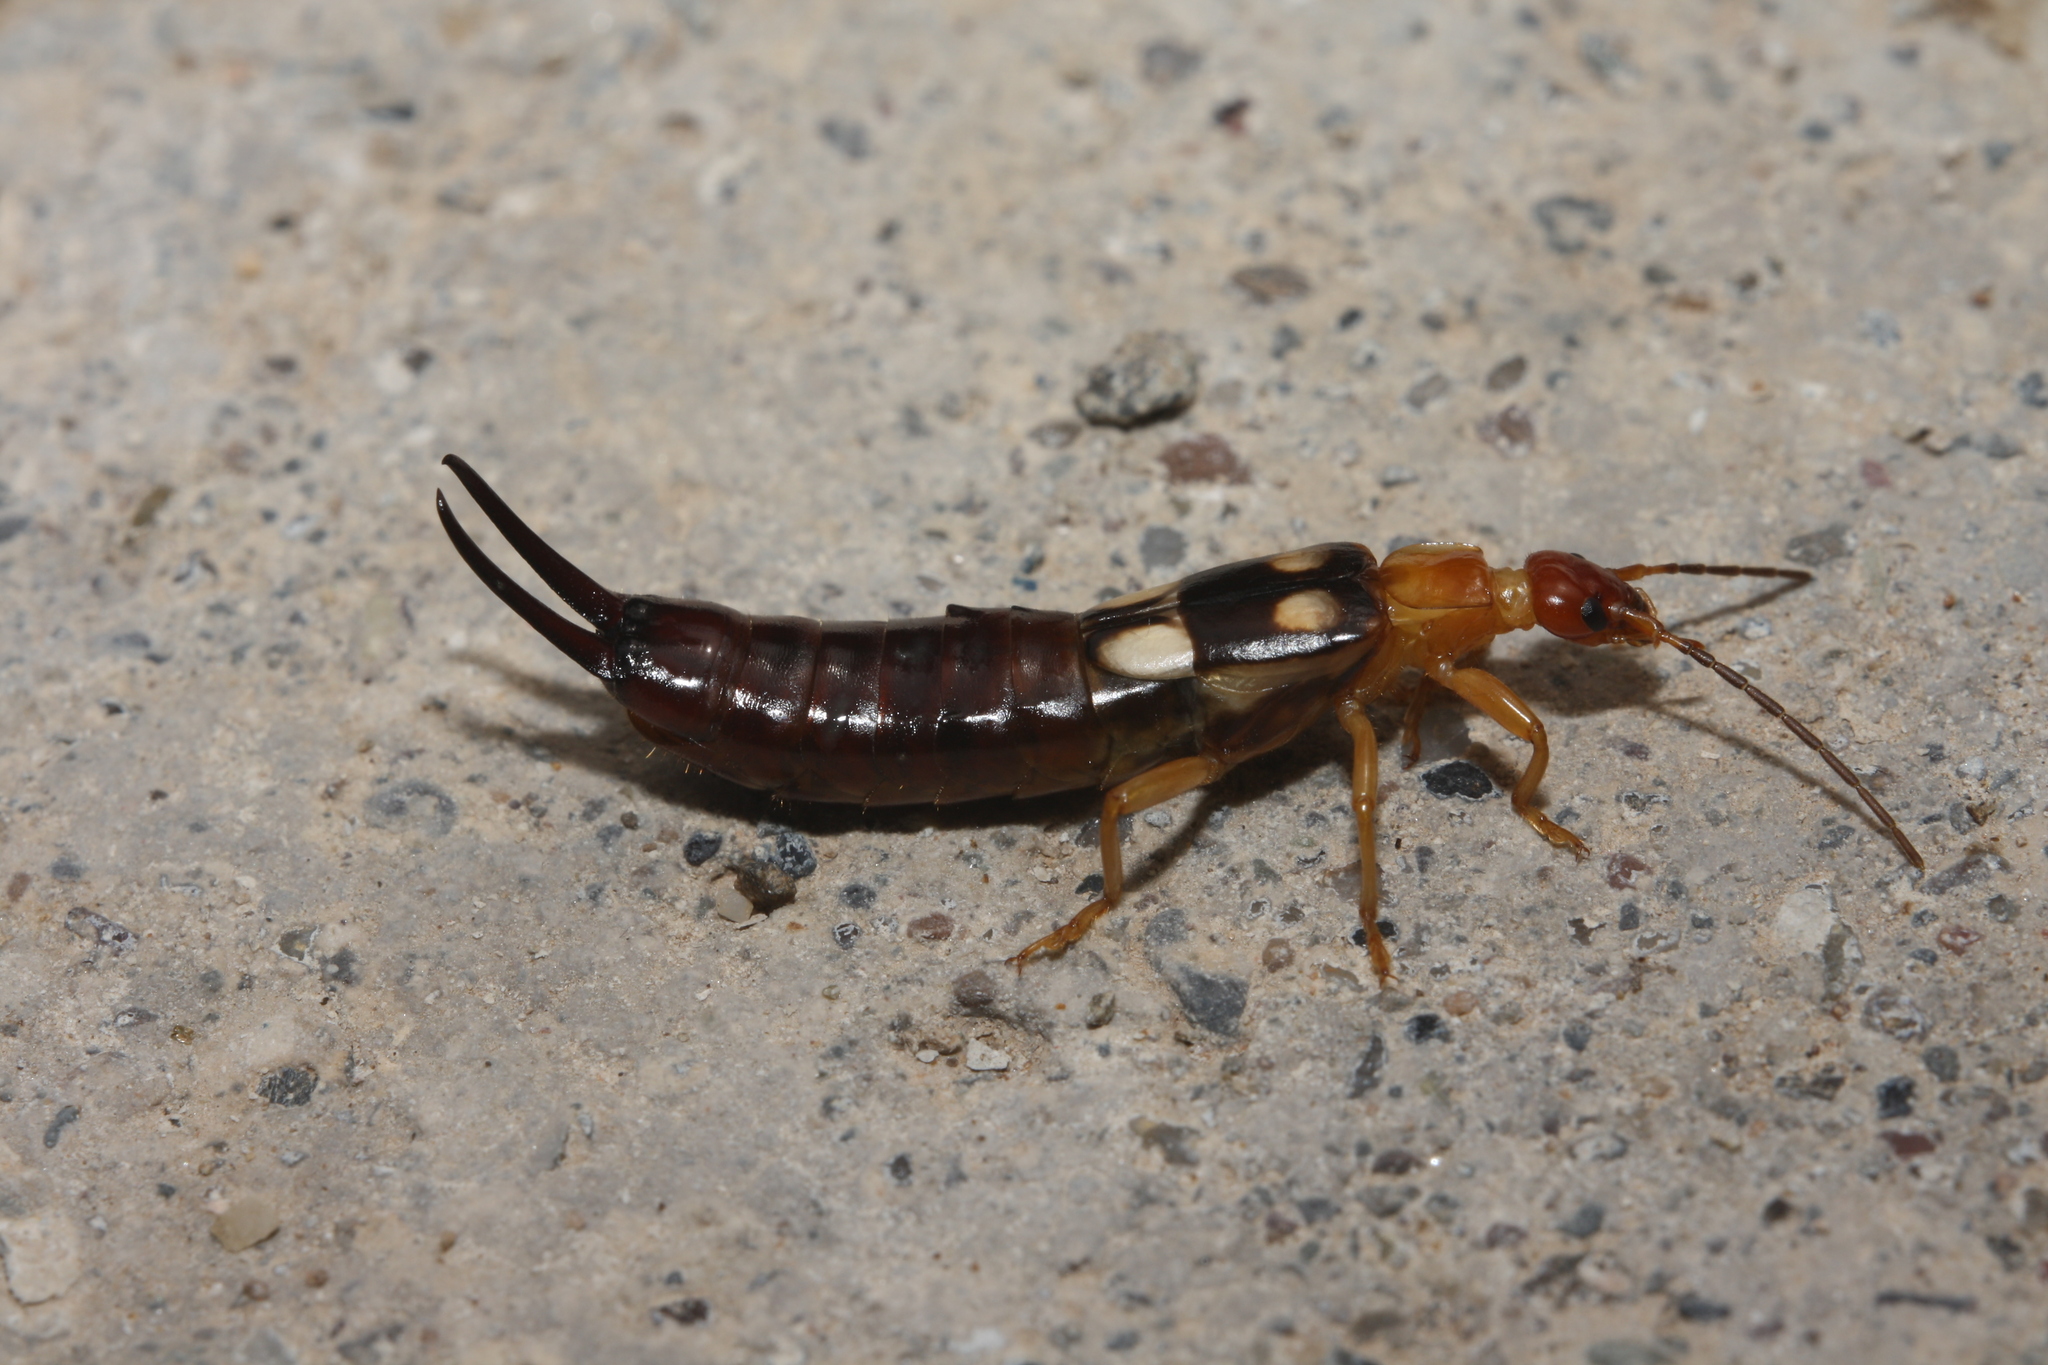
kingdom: Animalia
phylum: Arthropoda
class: Insecta
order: Dermaptera
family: Forficulidae
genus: Forficula
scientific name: Forficula smyrnensis
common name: Smyrna earwig
